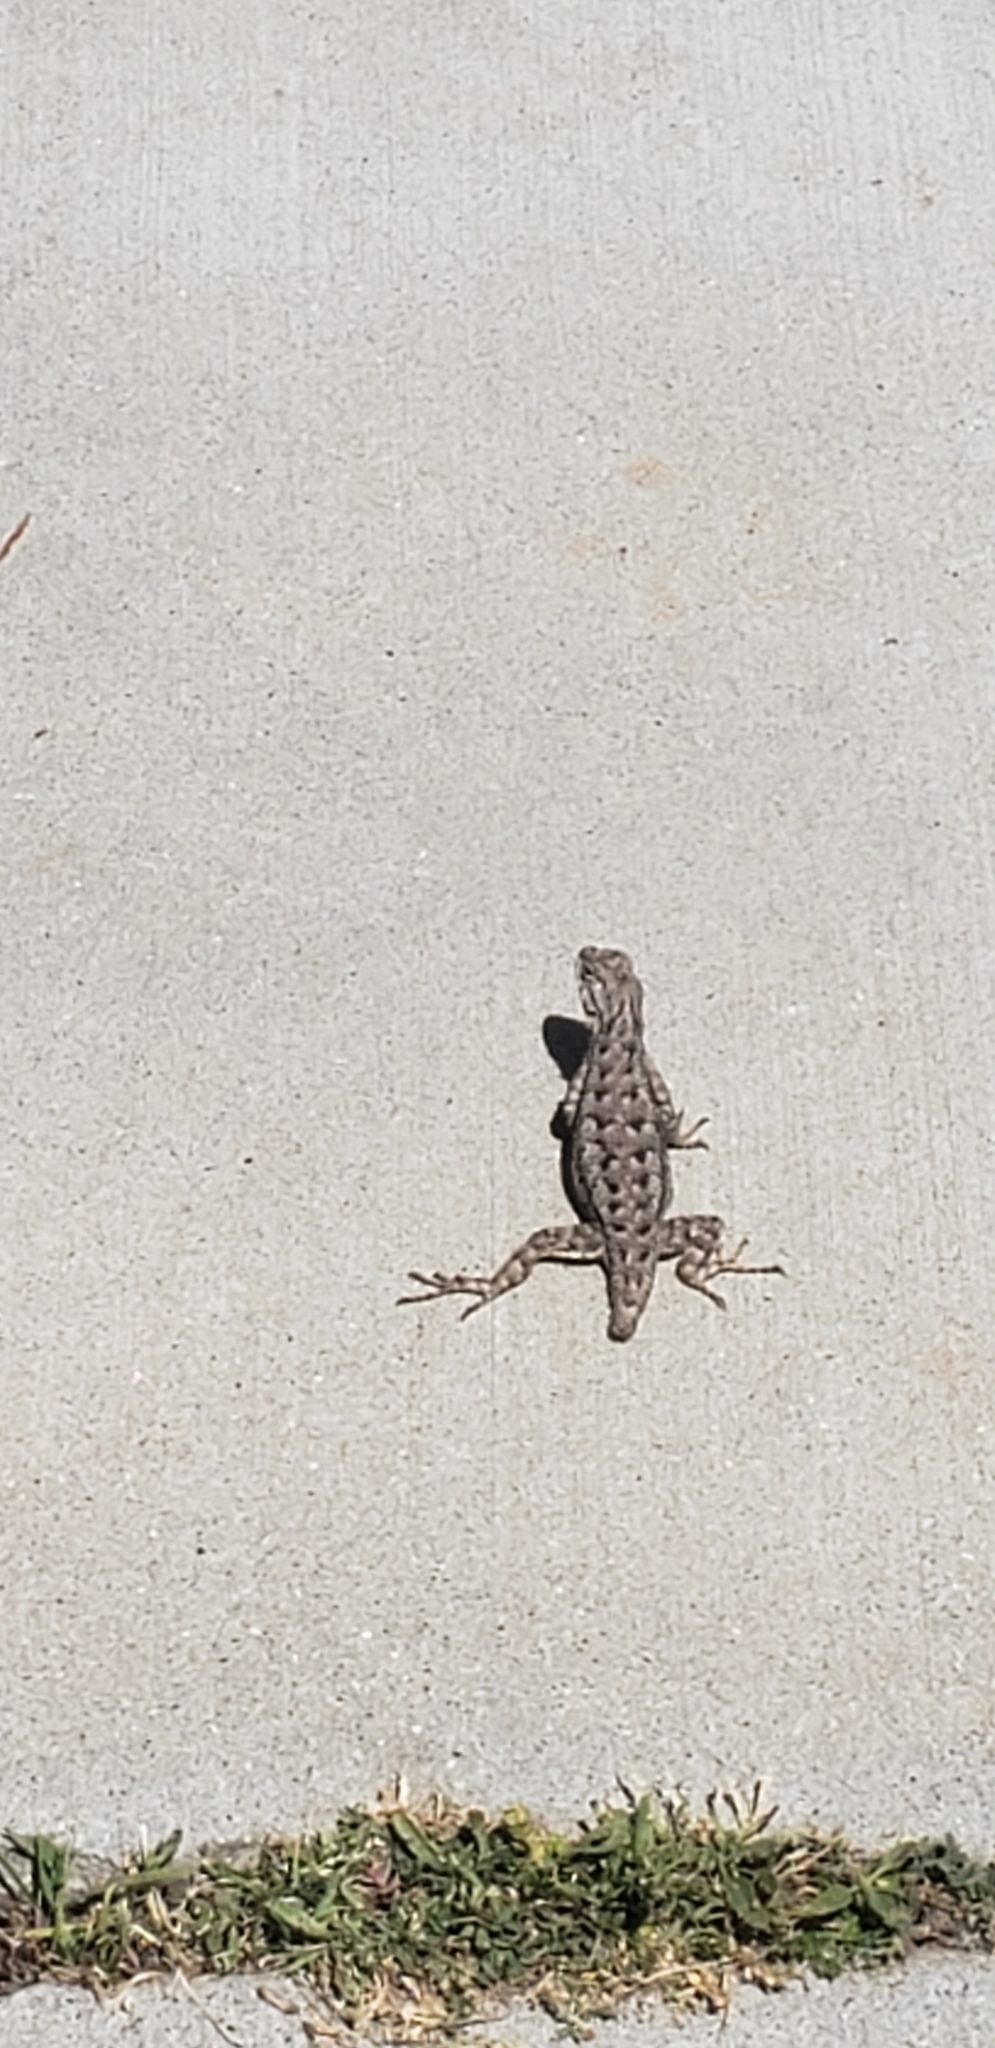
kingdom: Animalia
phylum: Chordata
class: Squamata
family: Phrynosomatidae
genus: Sceloporus
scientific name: Sceloporus occidentalis
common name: Western fence lizard
